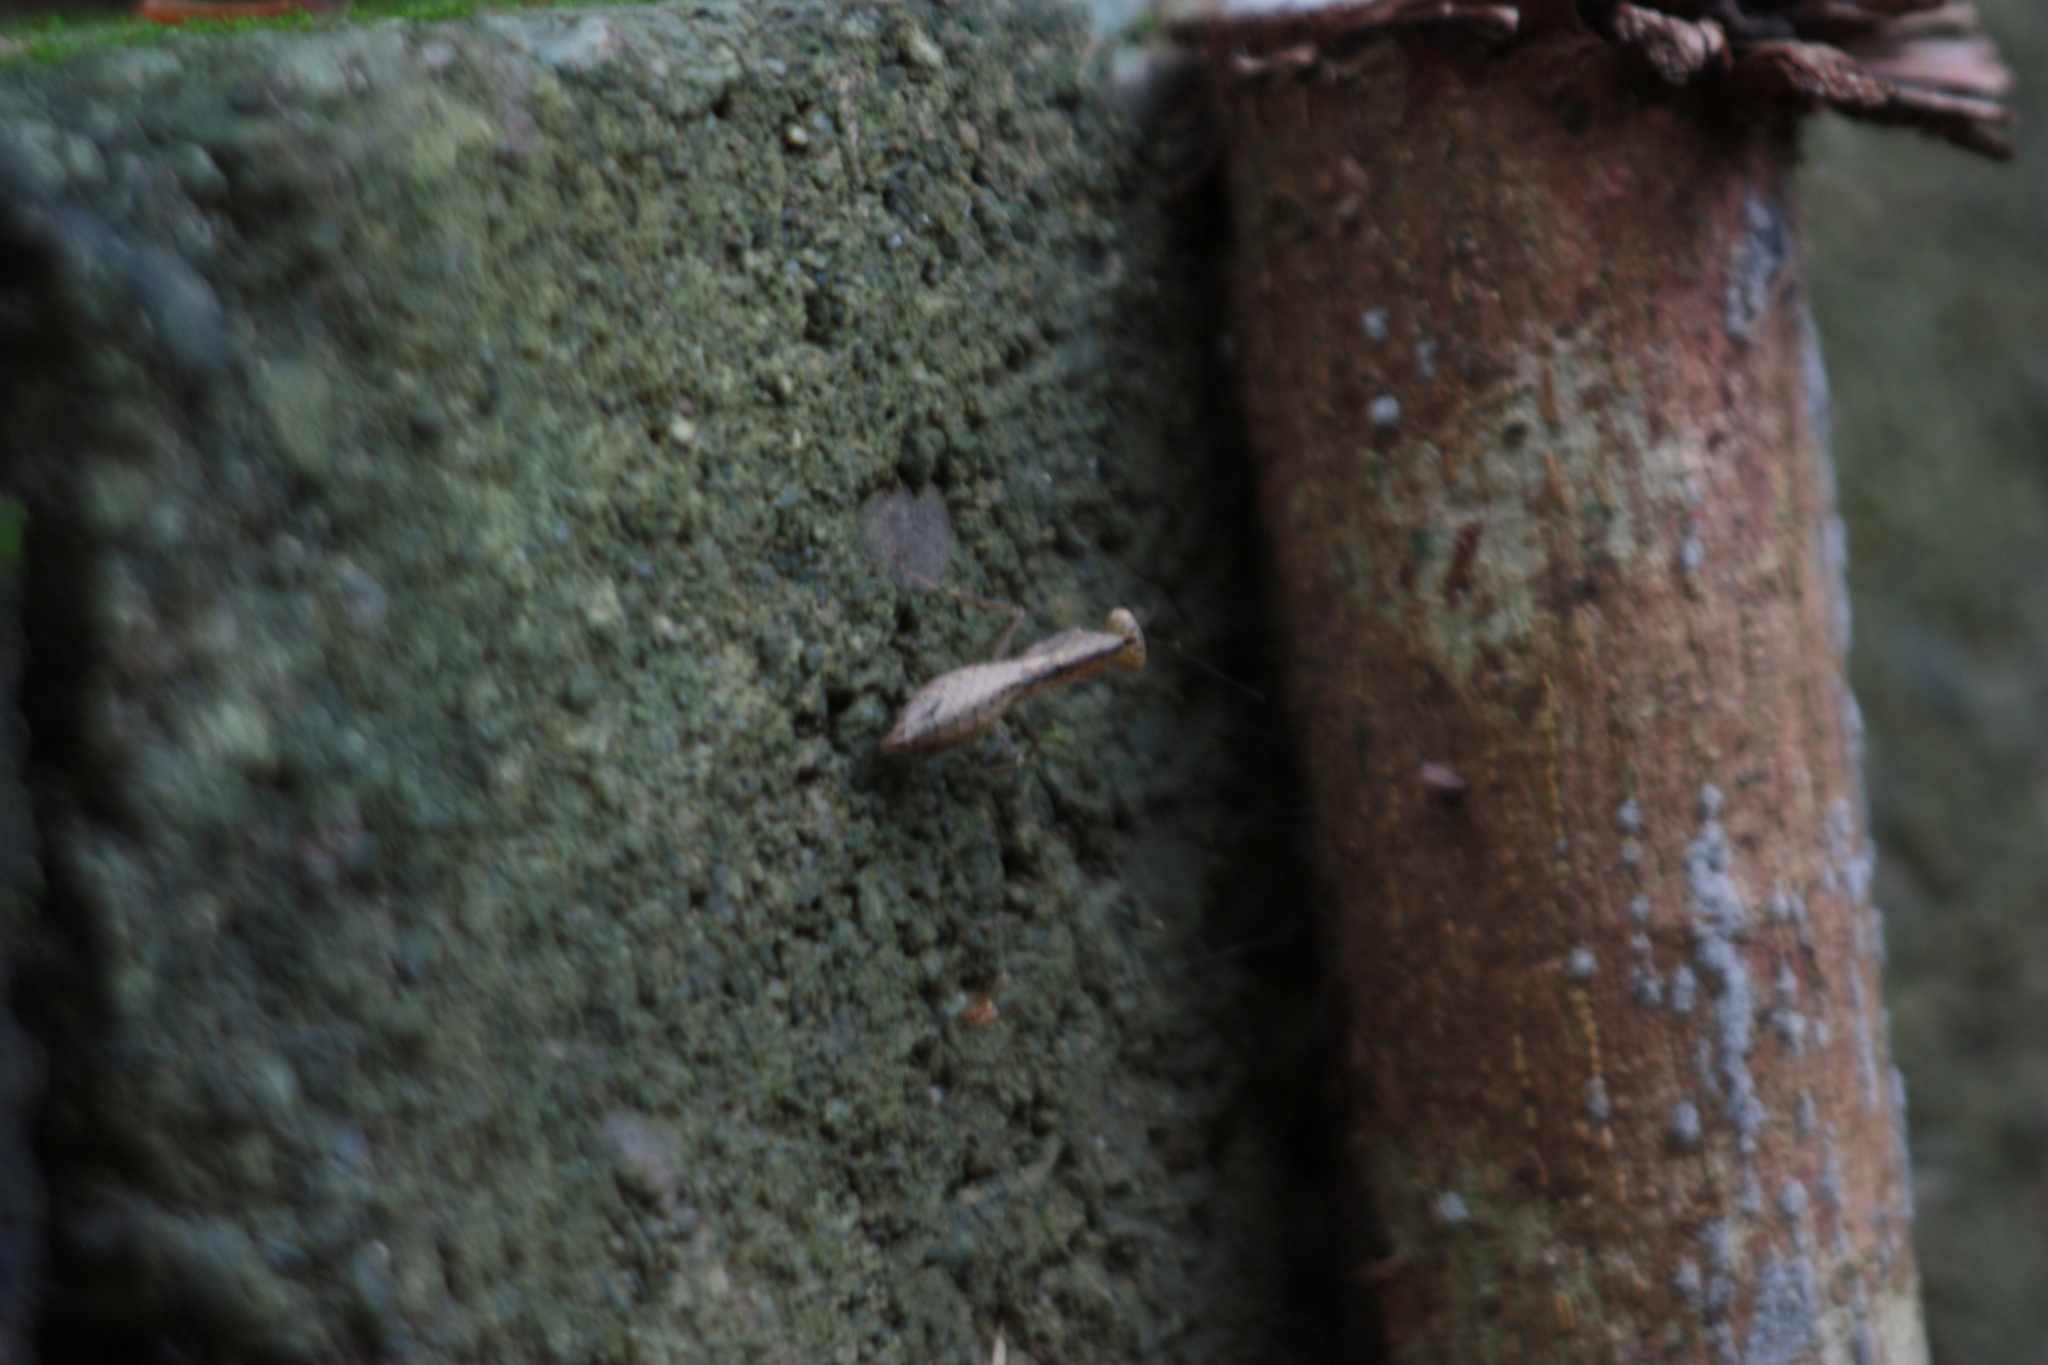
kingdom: Animalia
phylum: Arthropoda
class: Insecta
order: Mantodea
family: Gonypetidae
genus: Amantis
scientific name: Amantis nawai
